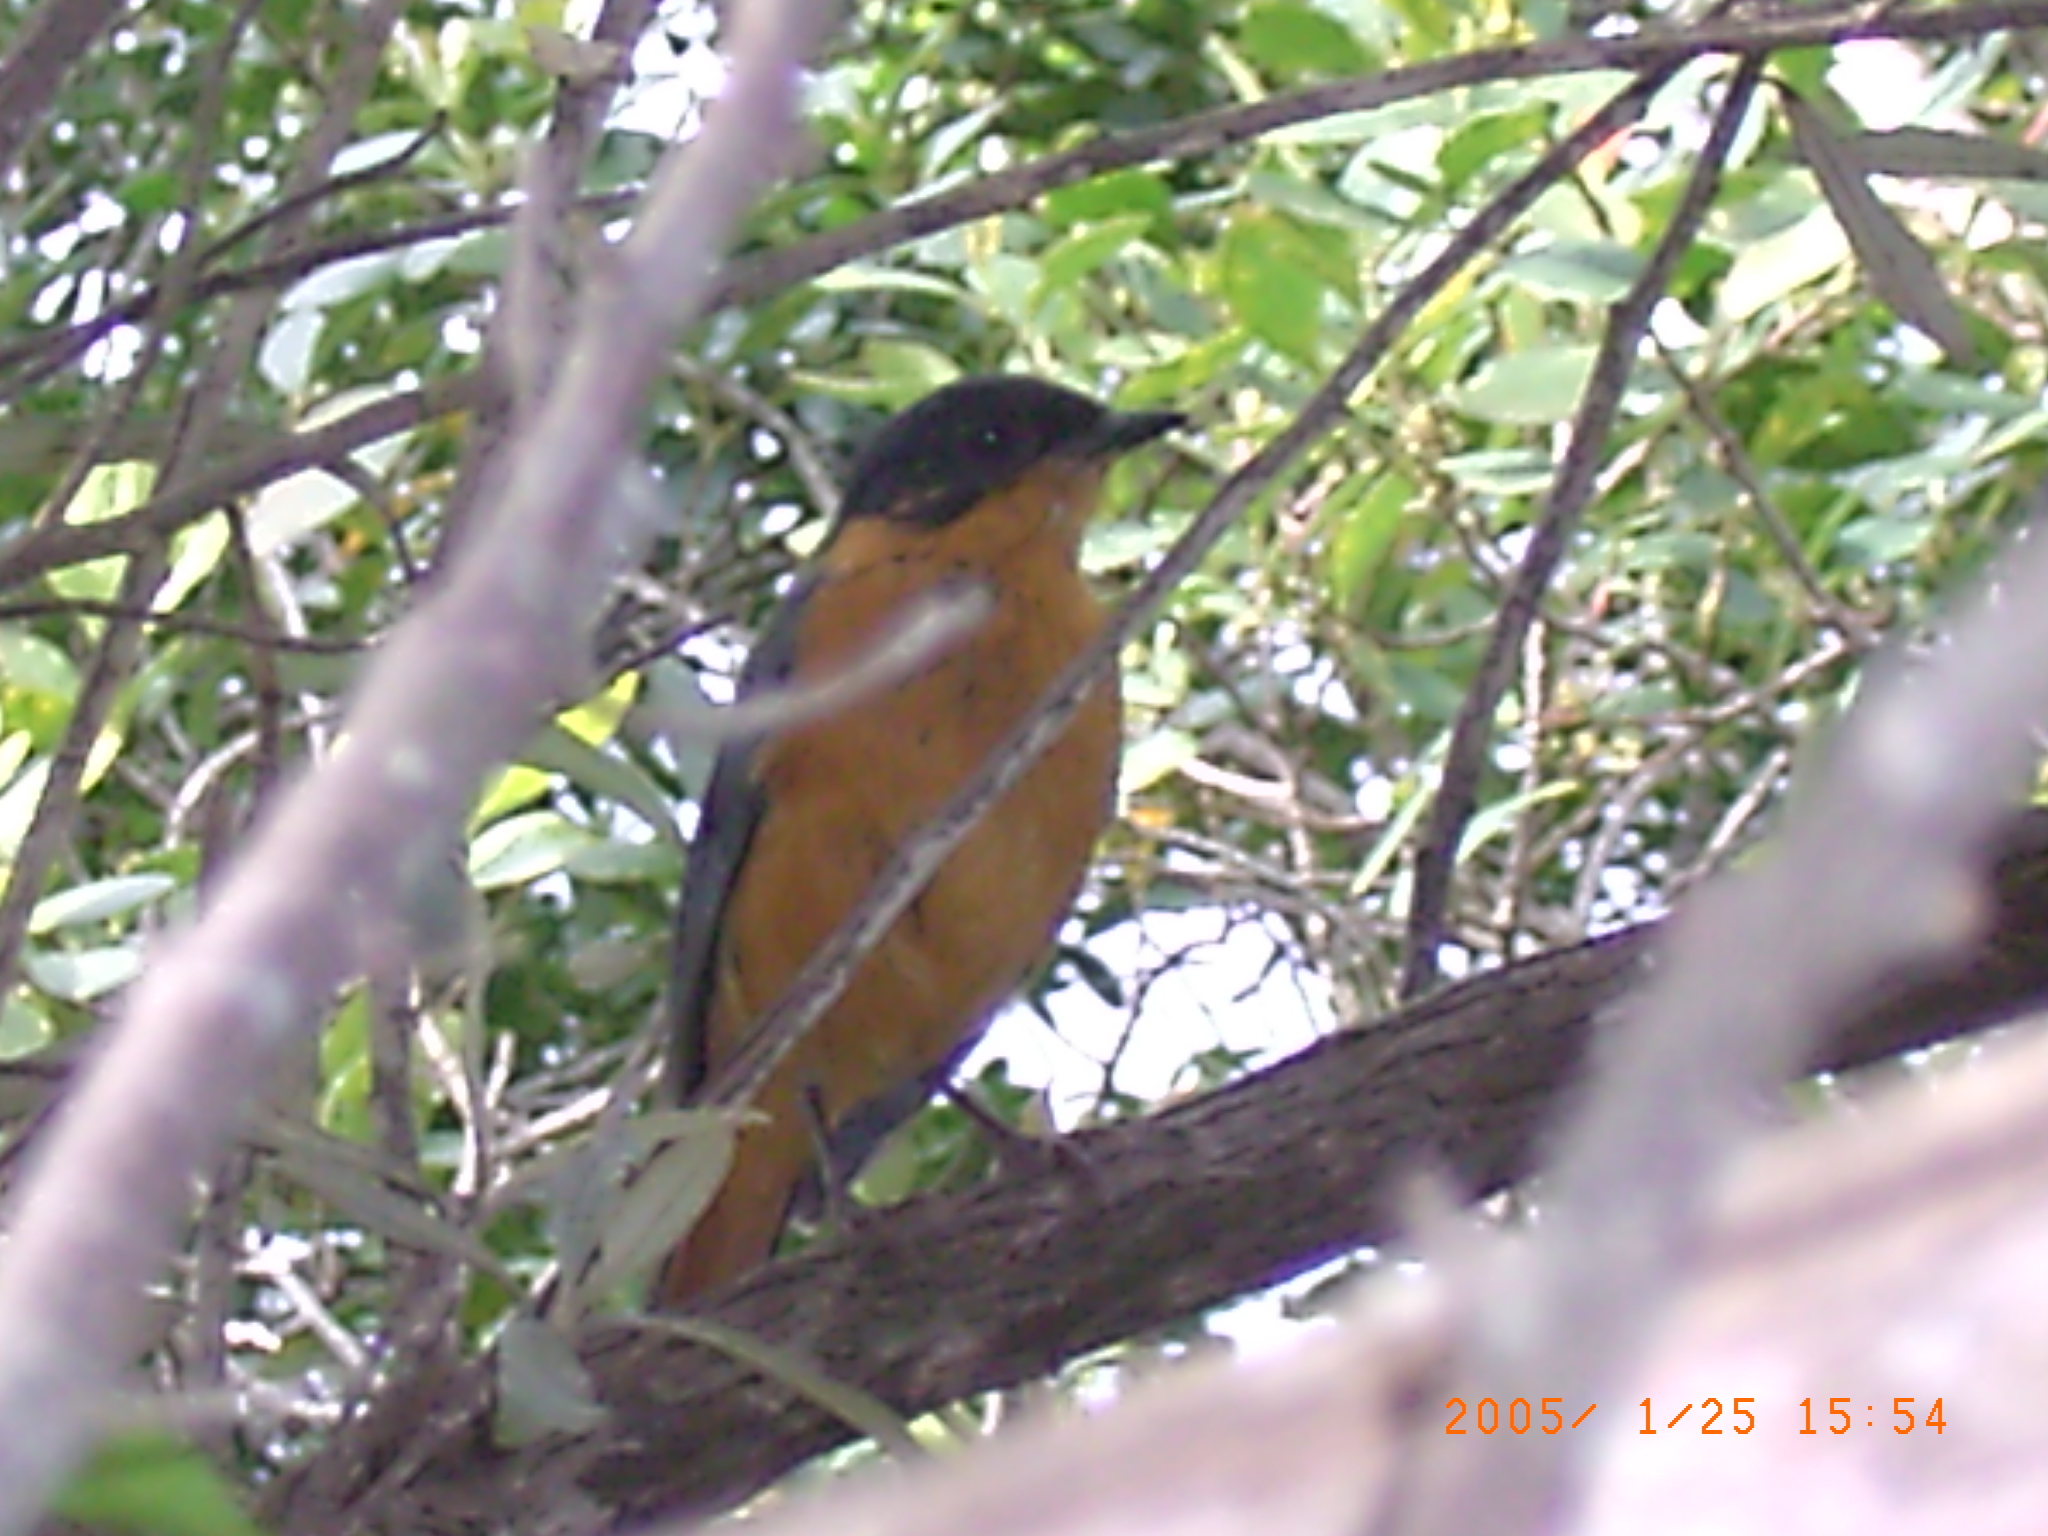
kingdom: Animalia
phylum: Chordata
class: Aves
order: Passeriformes
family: Muscicapidae
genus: Cossypha
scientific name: Cossypha dichroa
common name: Chorister robin-chat
